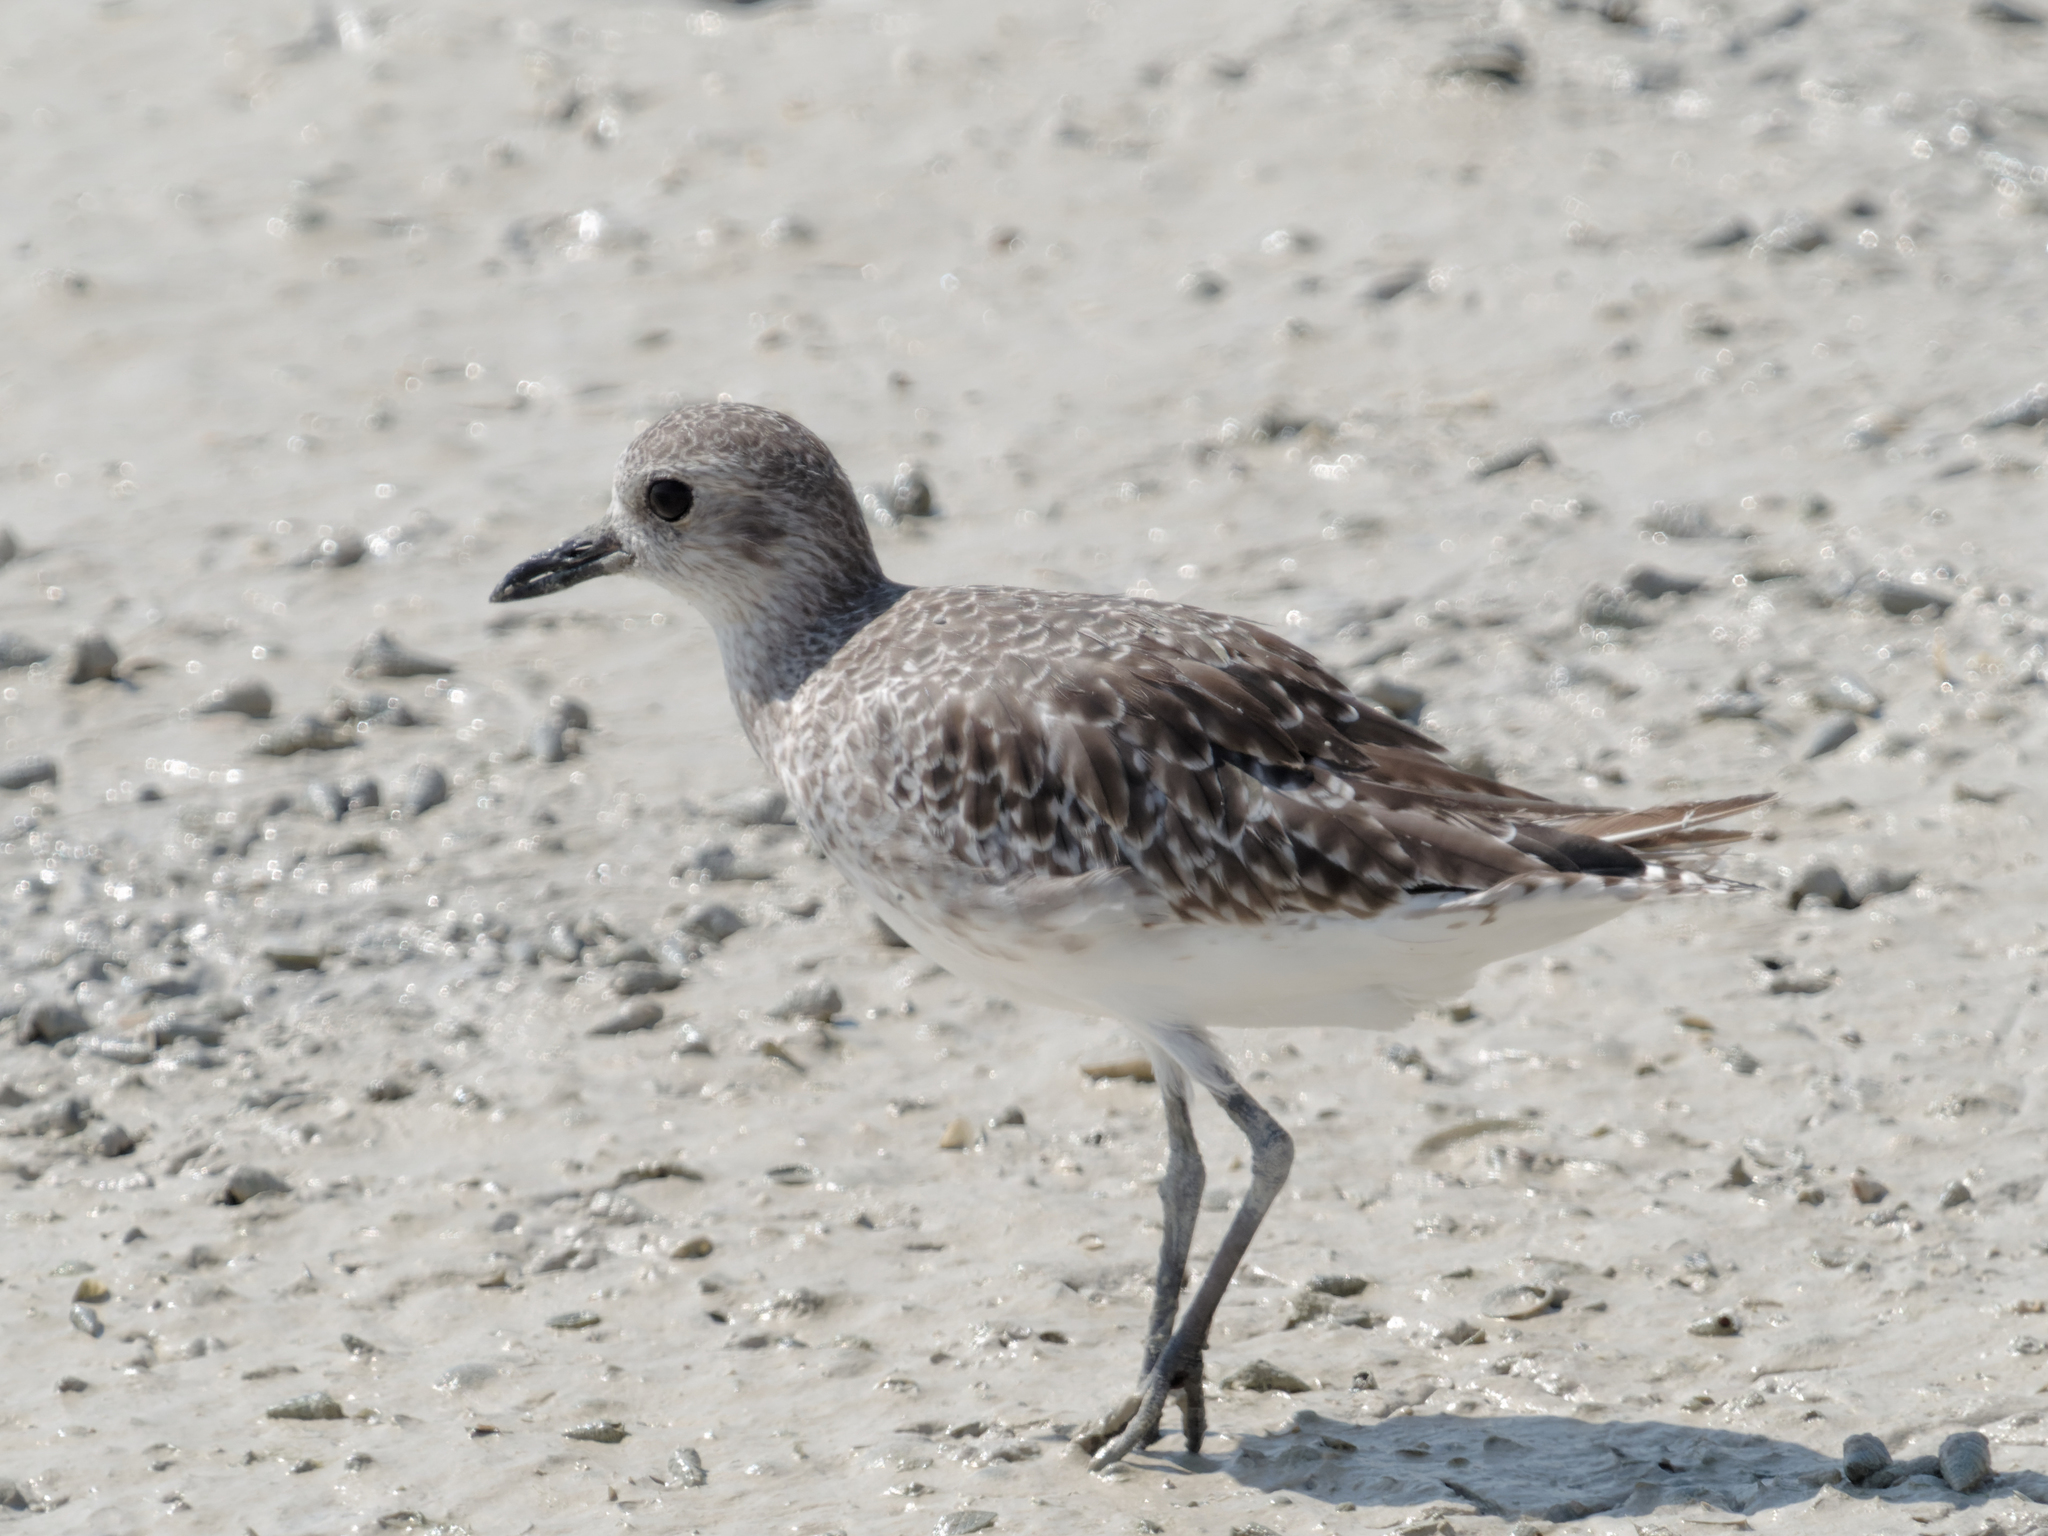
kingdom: Animalia
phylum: Chordata
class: Aves
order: Charadriiformes
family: Charadriidae
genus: Pluvialis
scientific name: Pluvialis squatarola
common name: Grey plover
